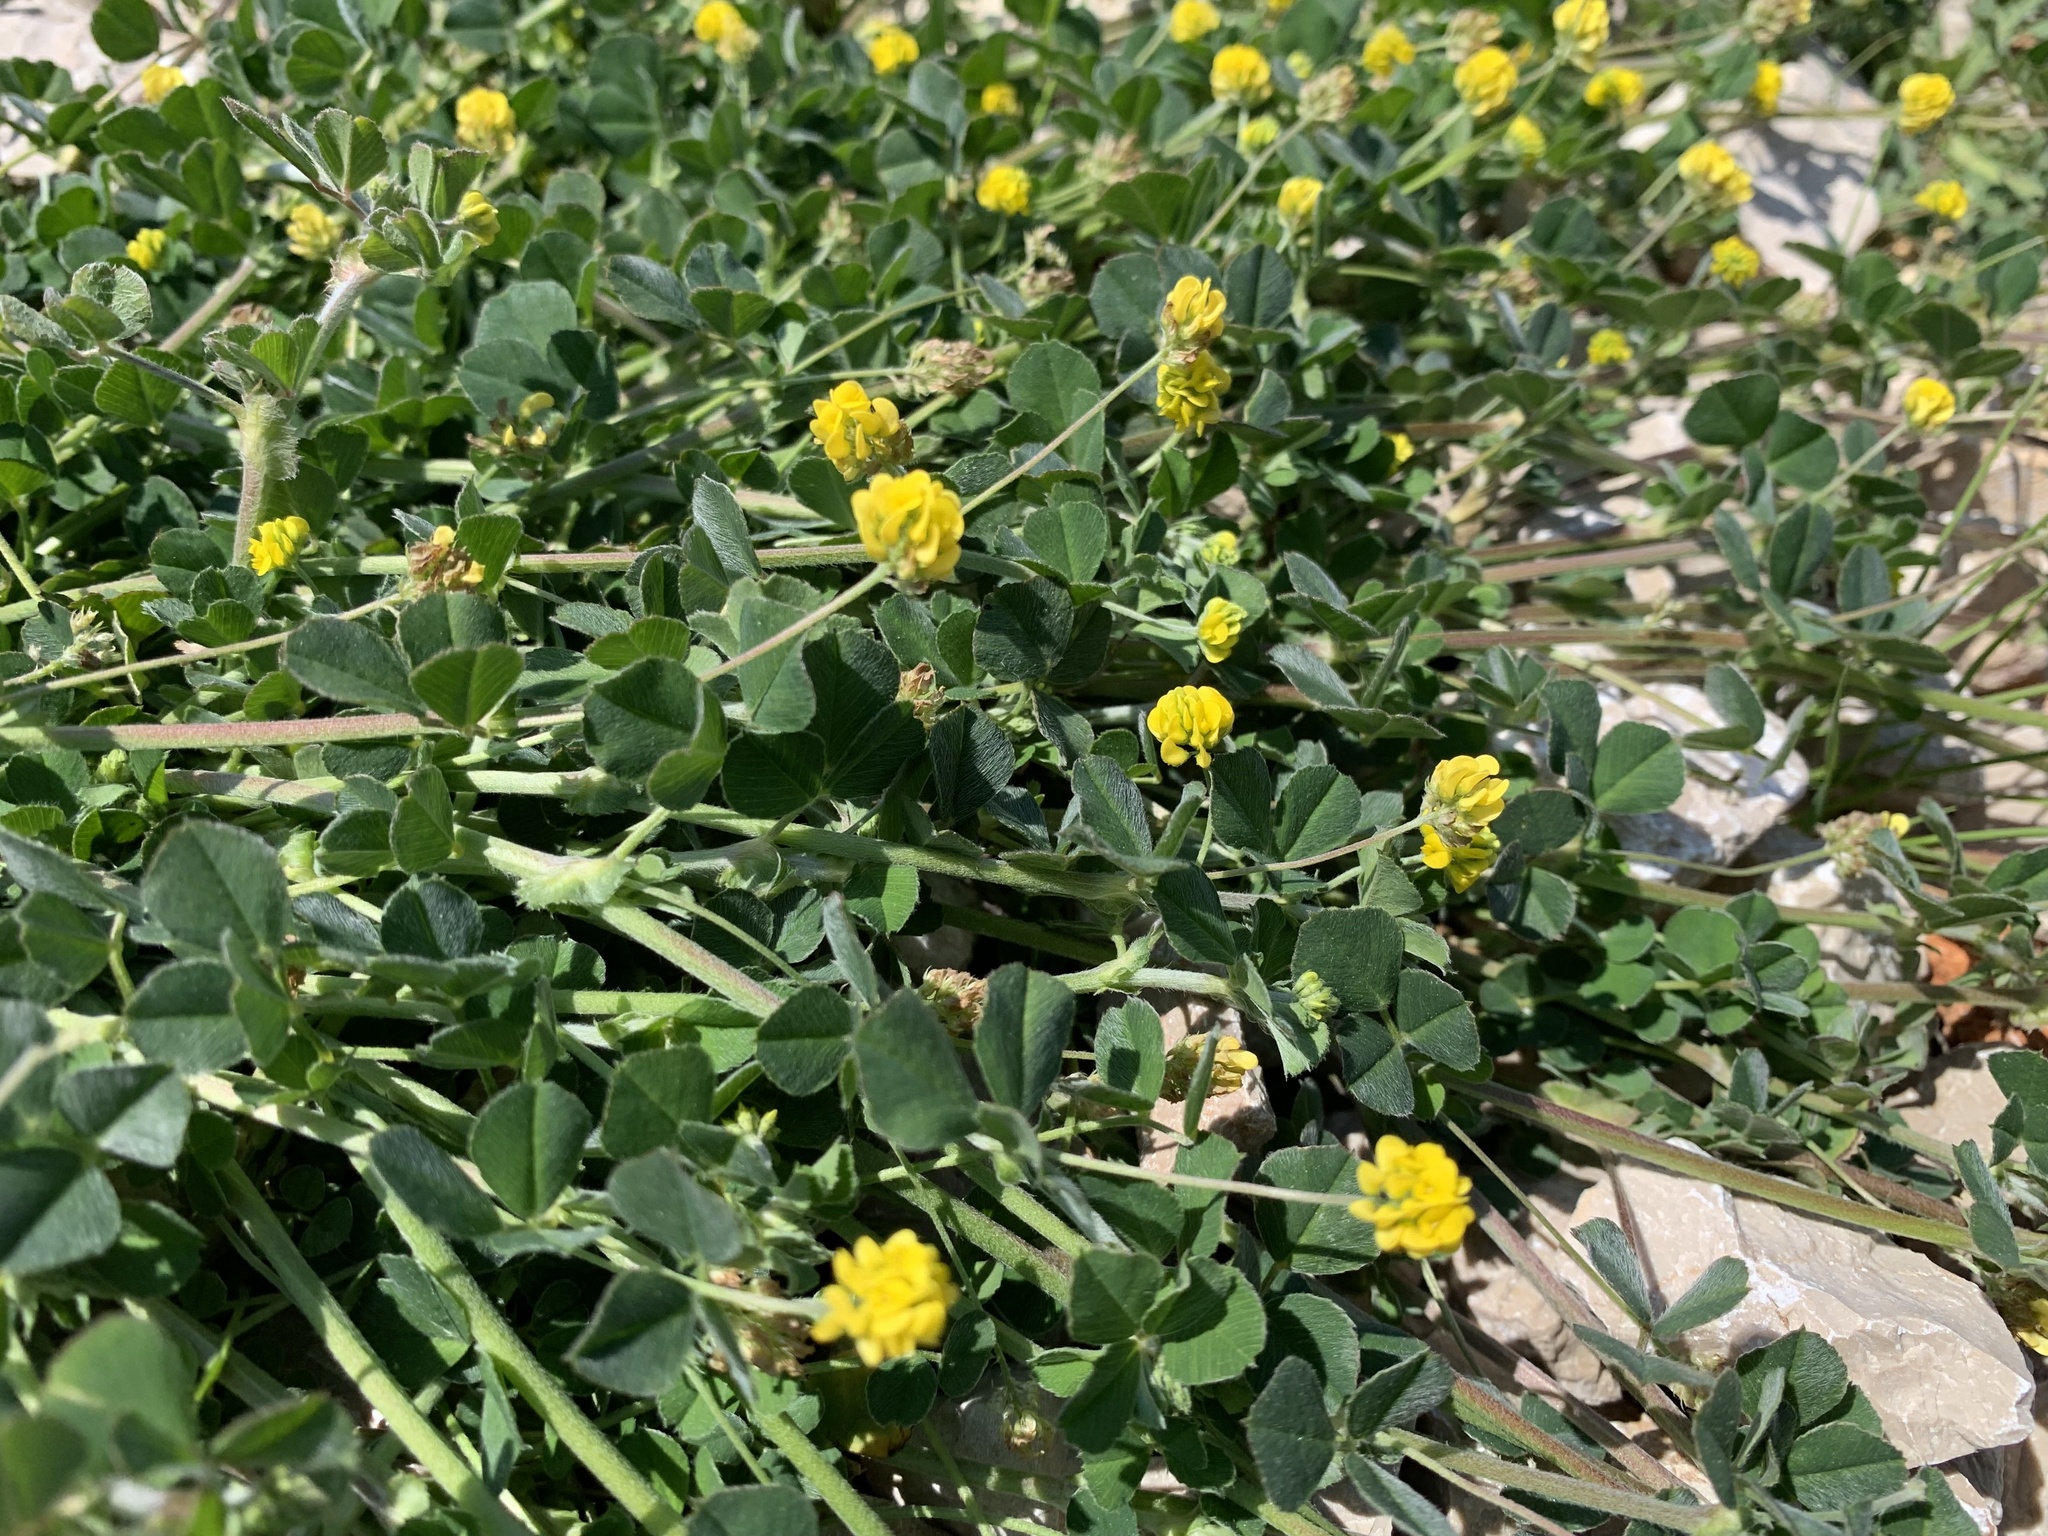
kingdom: Plantae
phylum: Tracheophyta
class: Magnoliopsida
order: Fabales
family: Fabaceae
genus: Medicago
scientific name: Medicago lupulina
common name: Black medick
